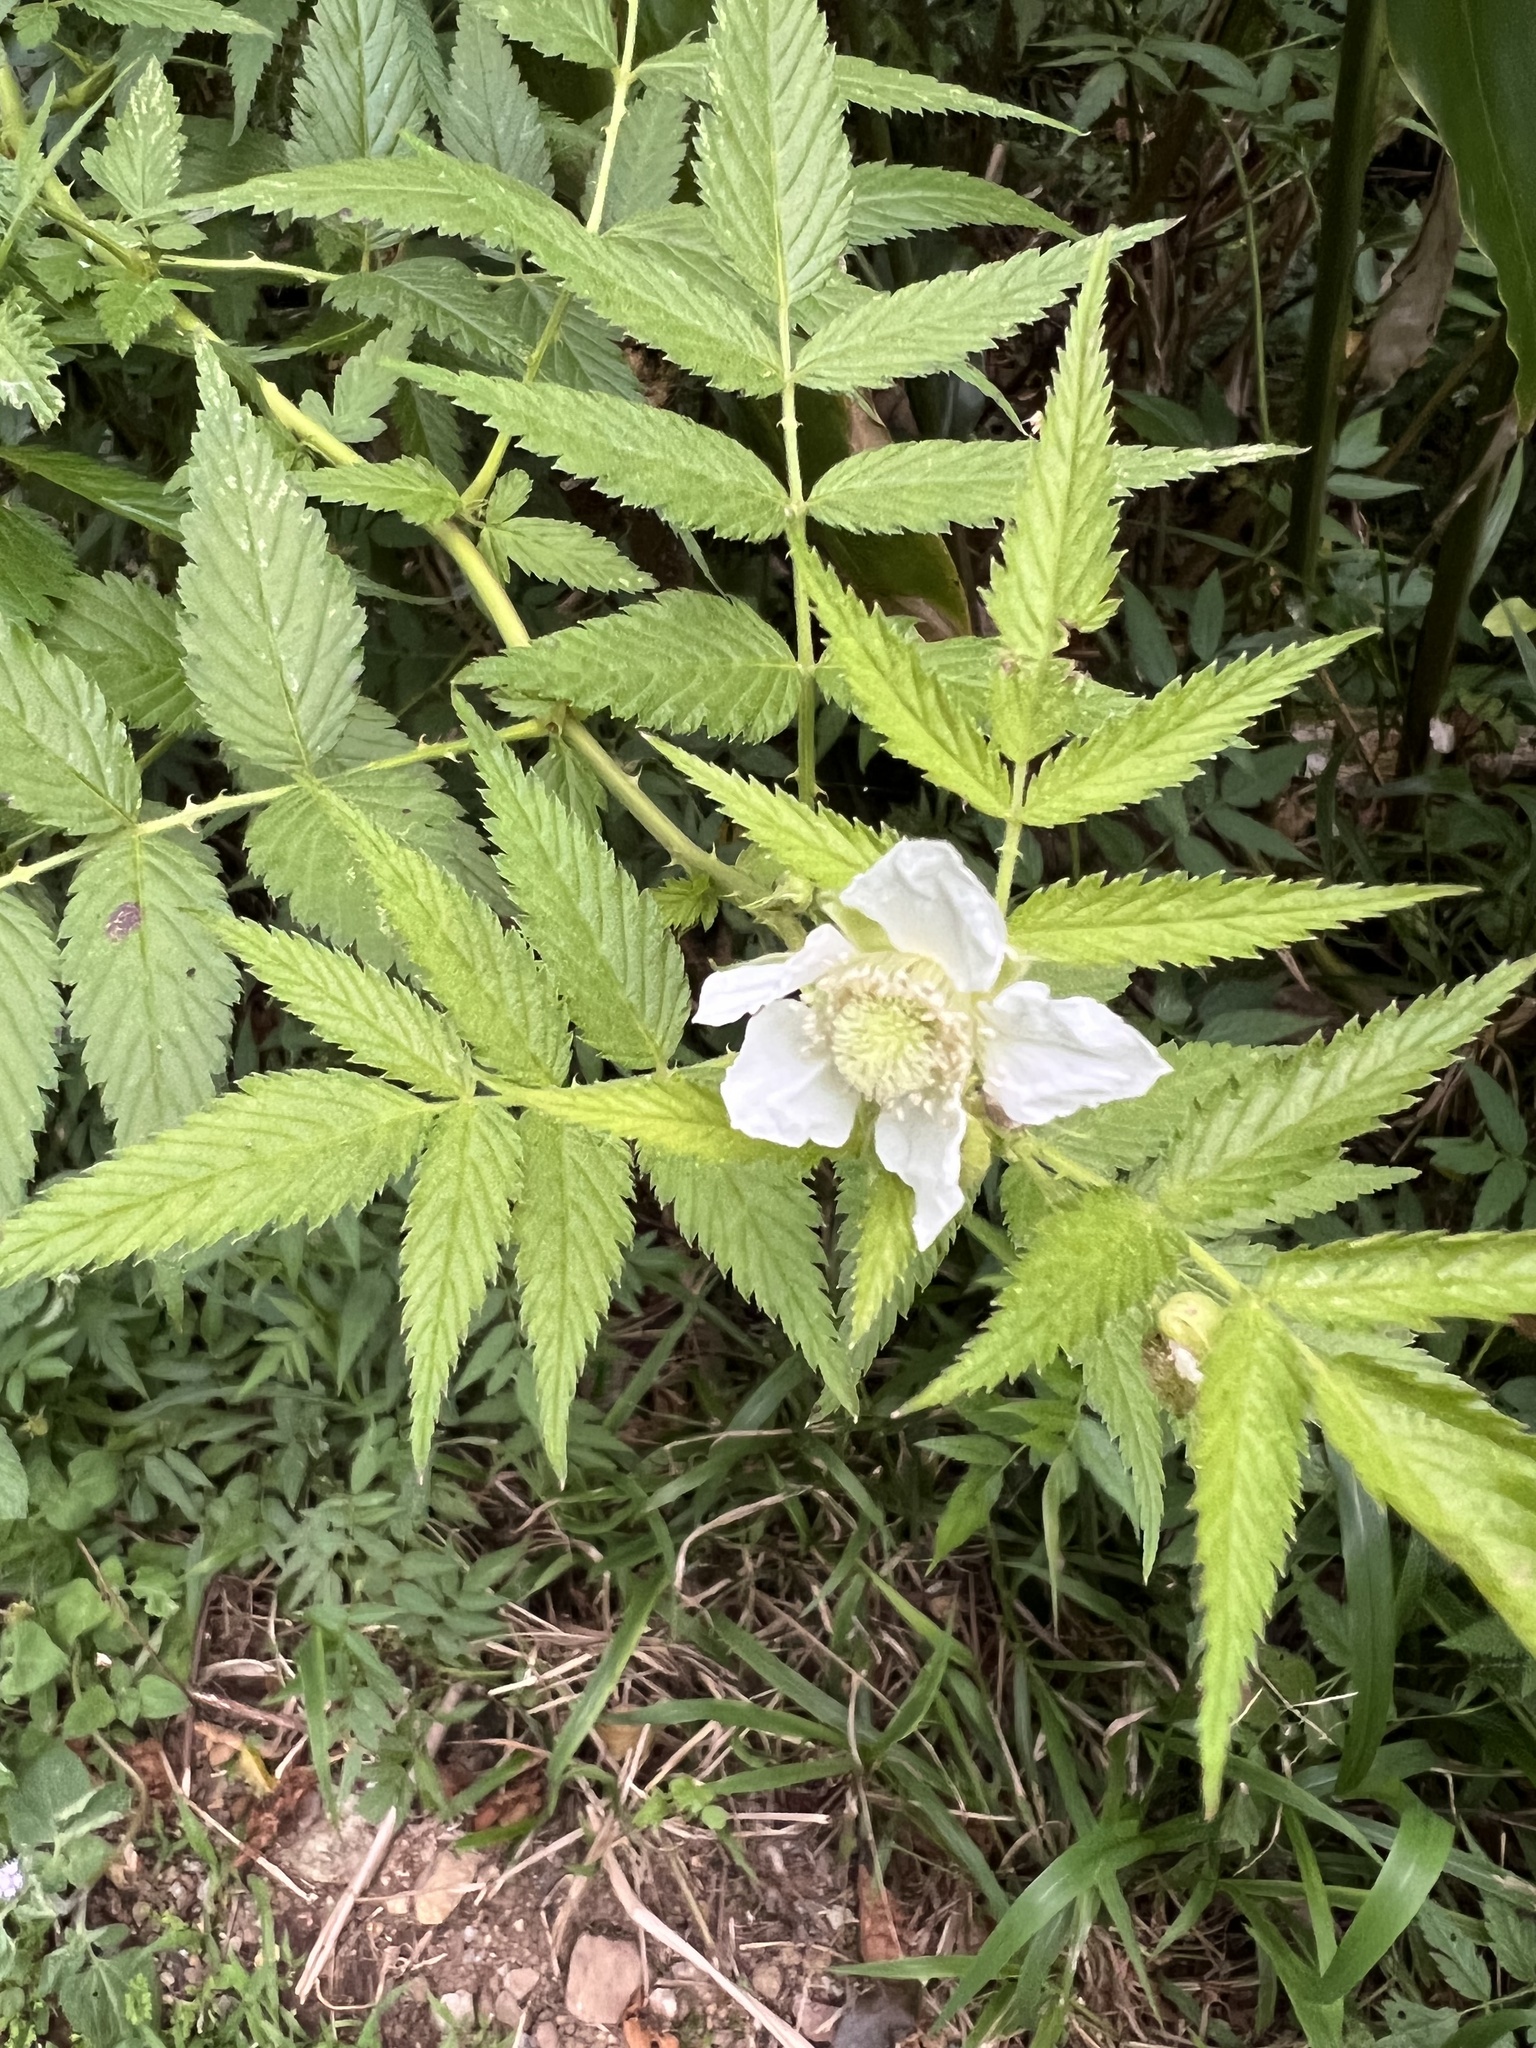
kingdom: Plantae
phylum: Tracheophyta
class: Magnoliopsida
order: Rosales
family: Rosaceae
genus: Rubus
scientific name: Rubus rosifolius
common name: Roseleaf raspberry
